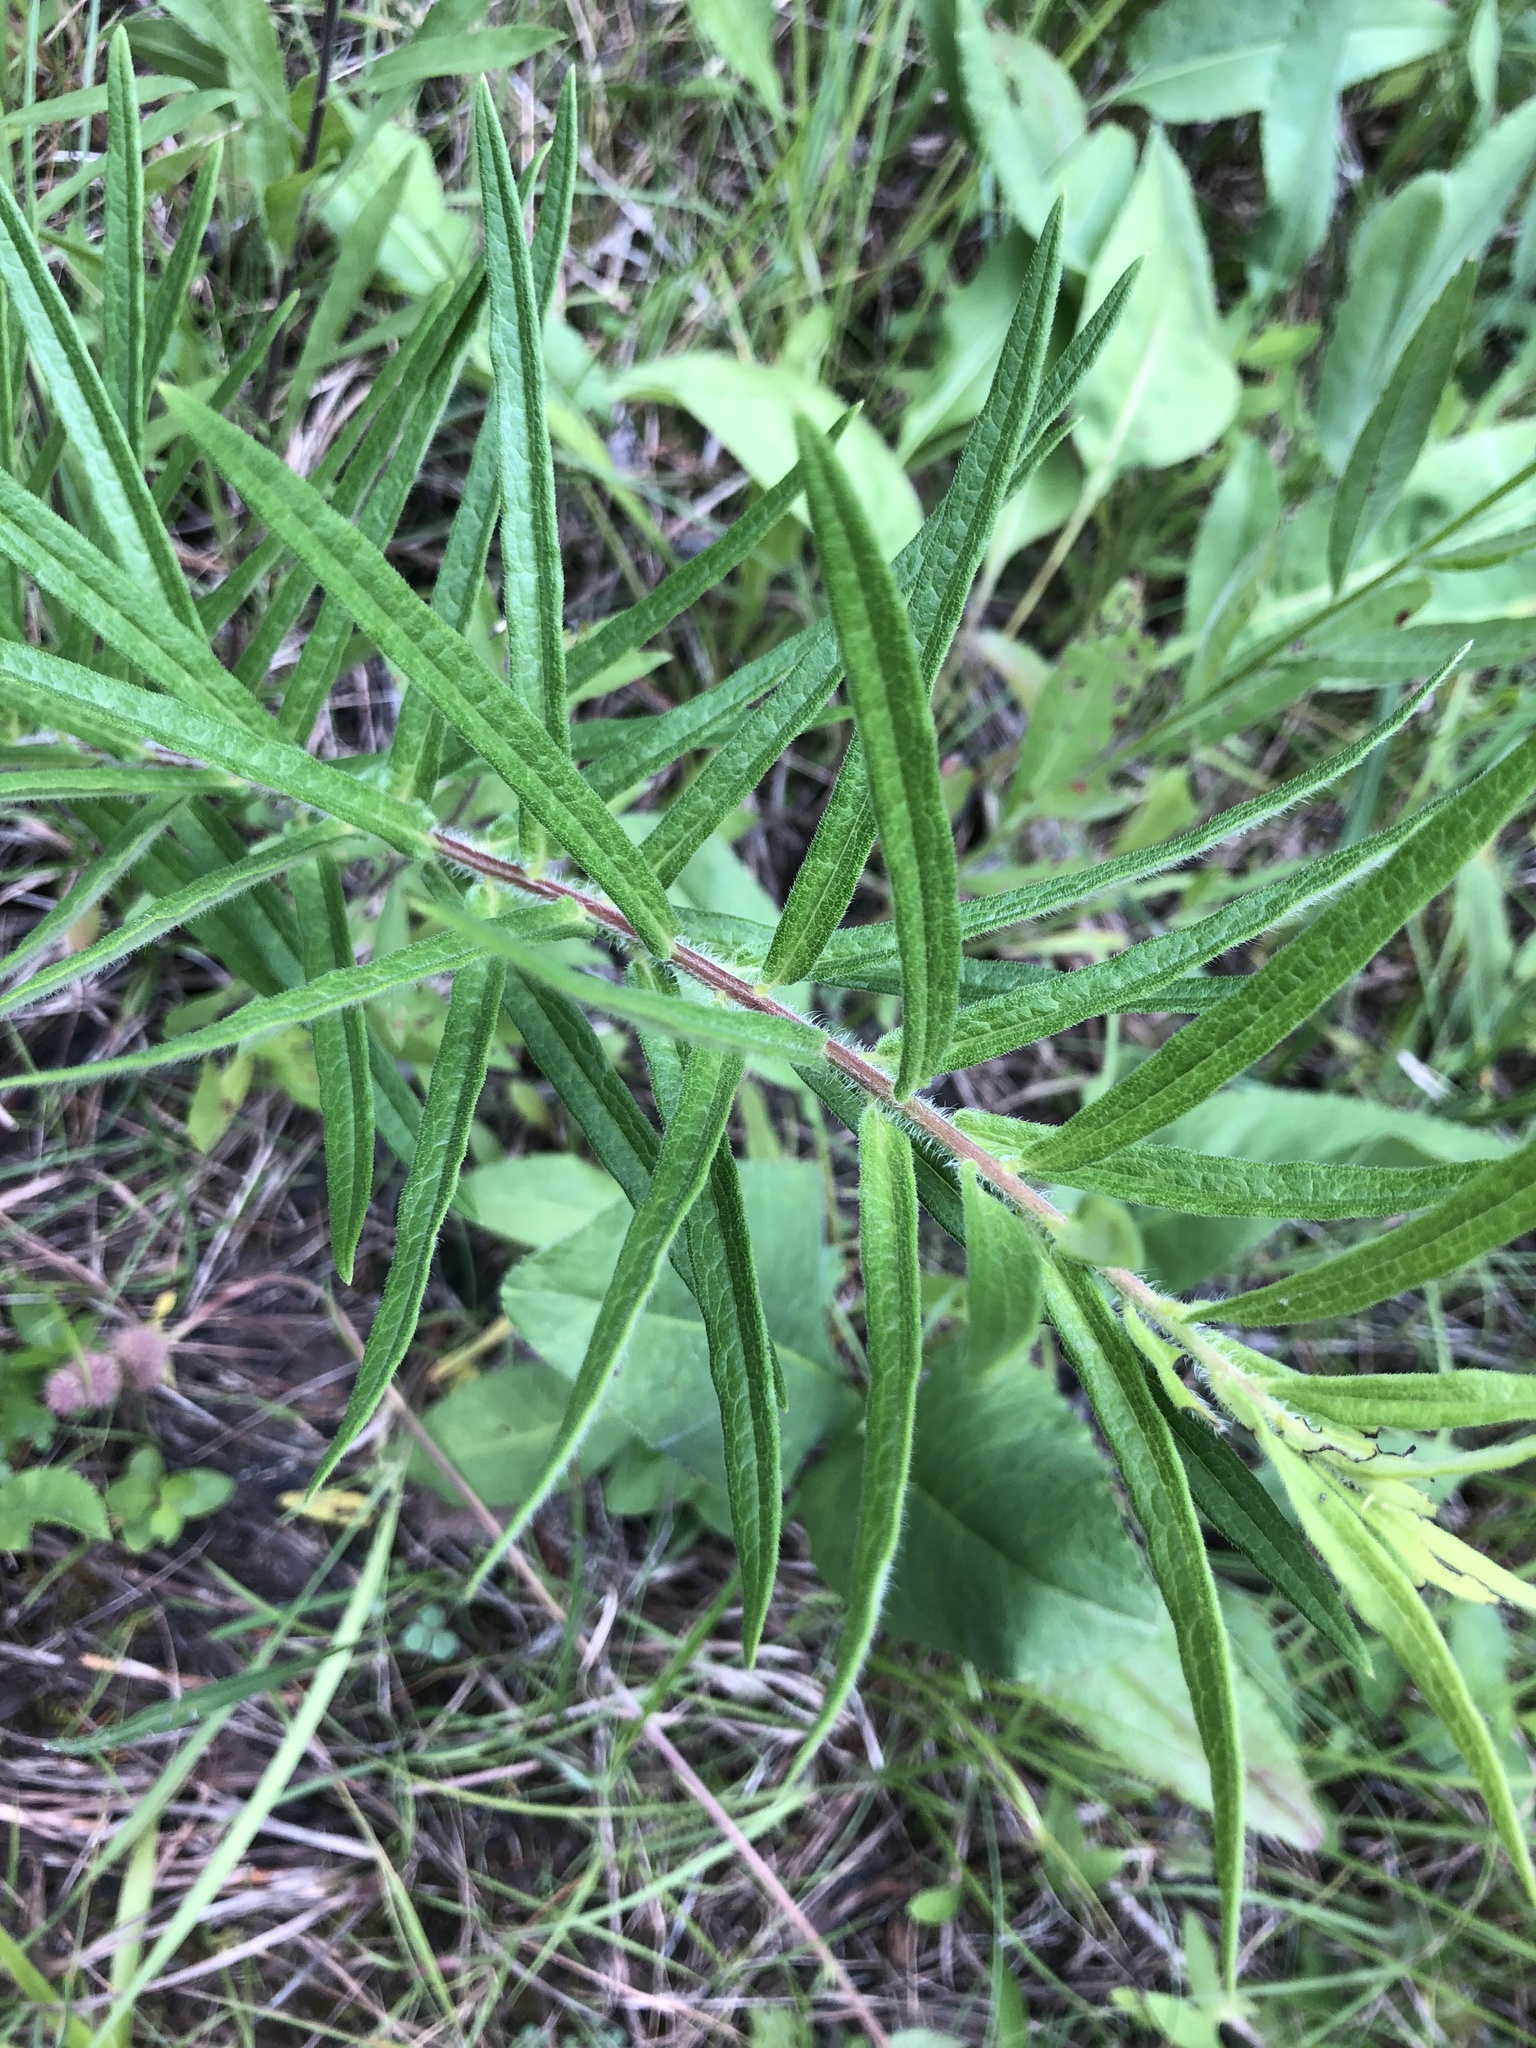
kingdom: Plantae
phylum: Tracheophyta
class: Magnoliopsida
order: Gentianales
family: Apocynaceae
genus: Asclepias
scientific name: Asclepias tuberosa
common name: Butterfly milkweed
